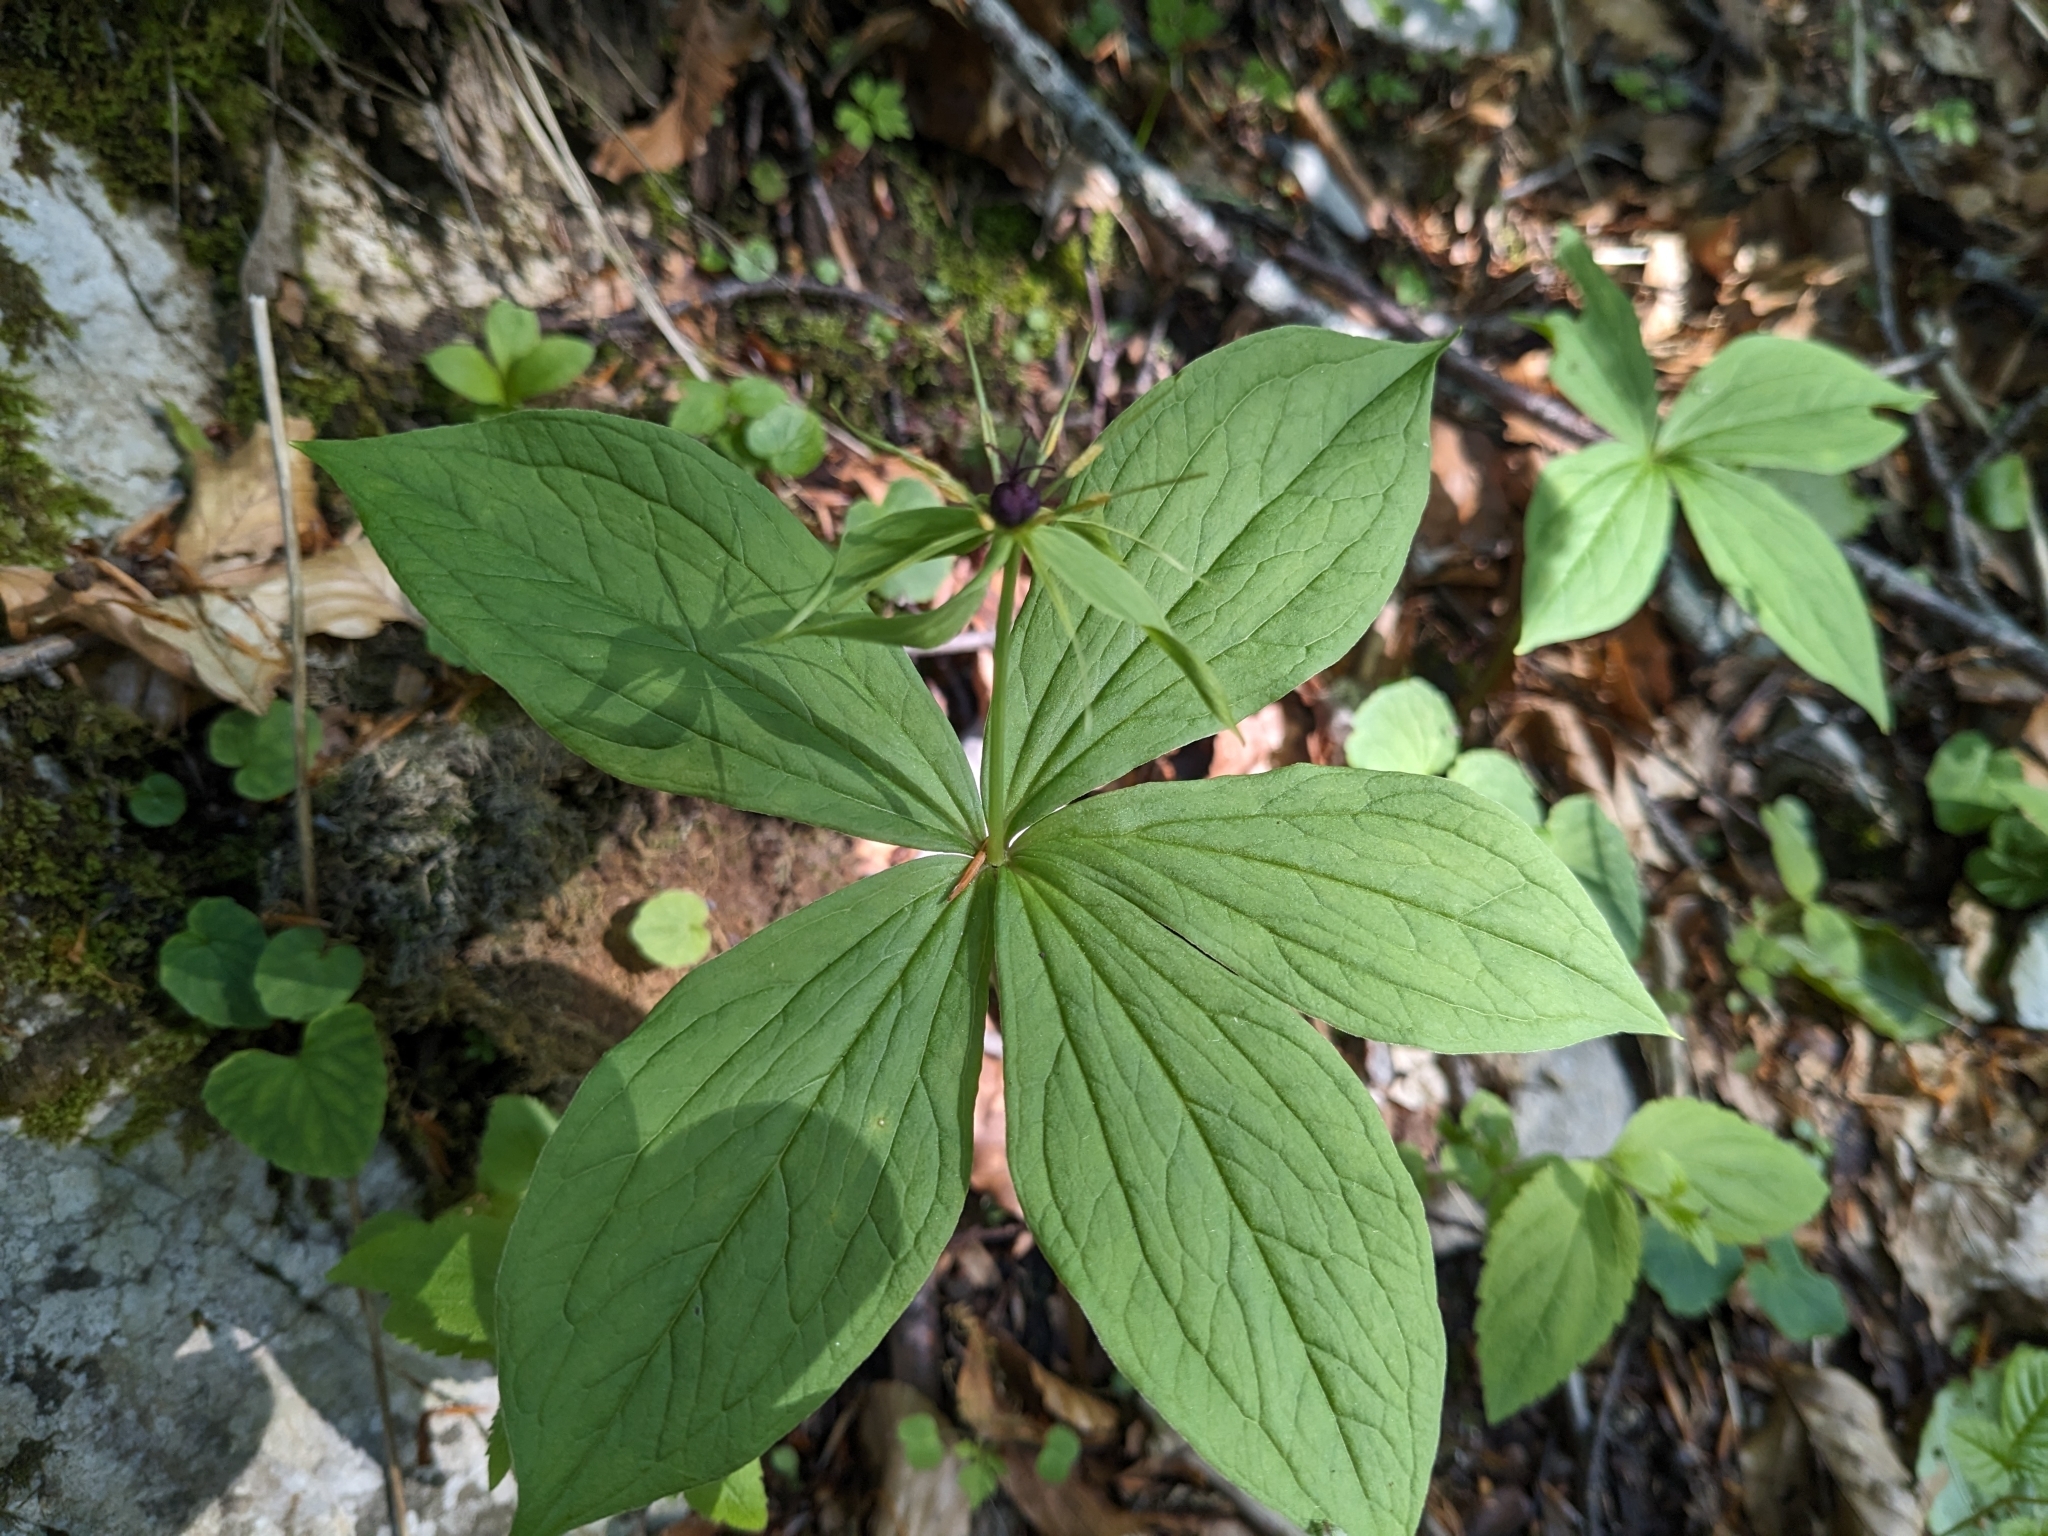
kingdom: Plantae
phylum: Tracheophyta
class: Liliopsida
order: Liliales
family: Melanthiaceae
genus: Paris
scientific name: Paris quadrifolia
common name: Herb-paris
